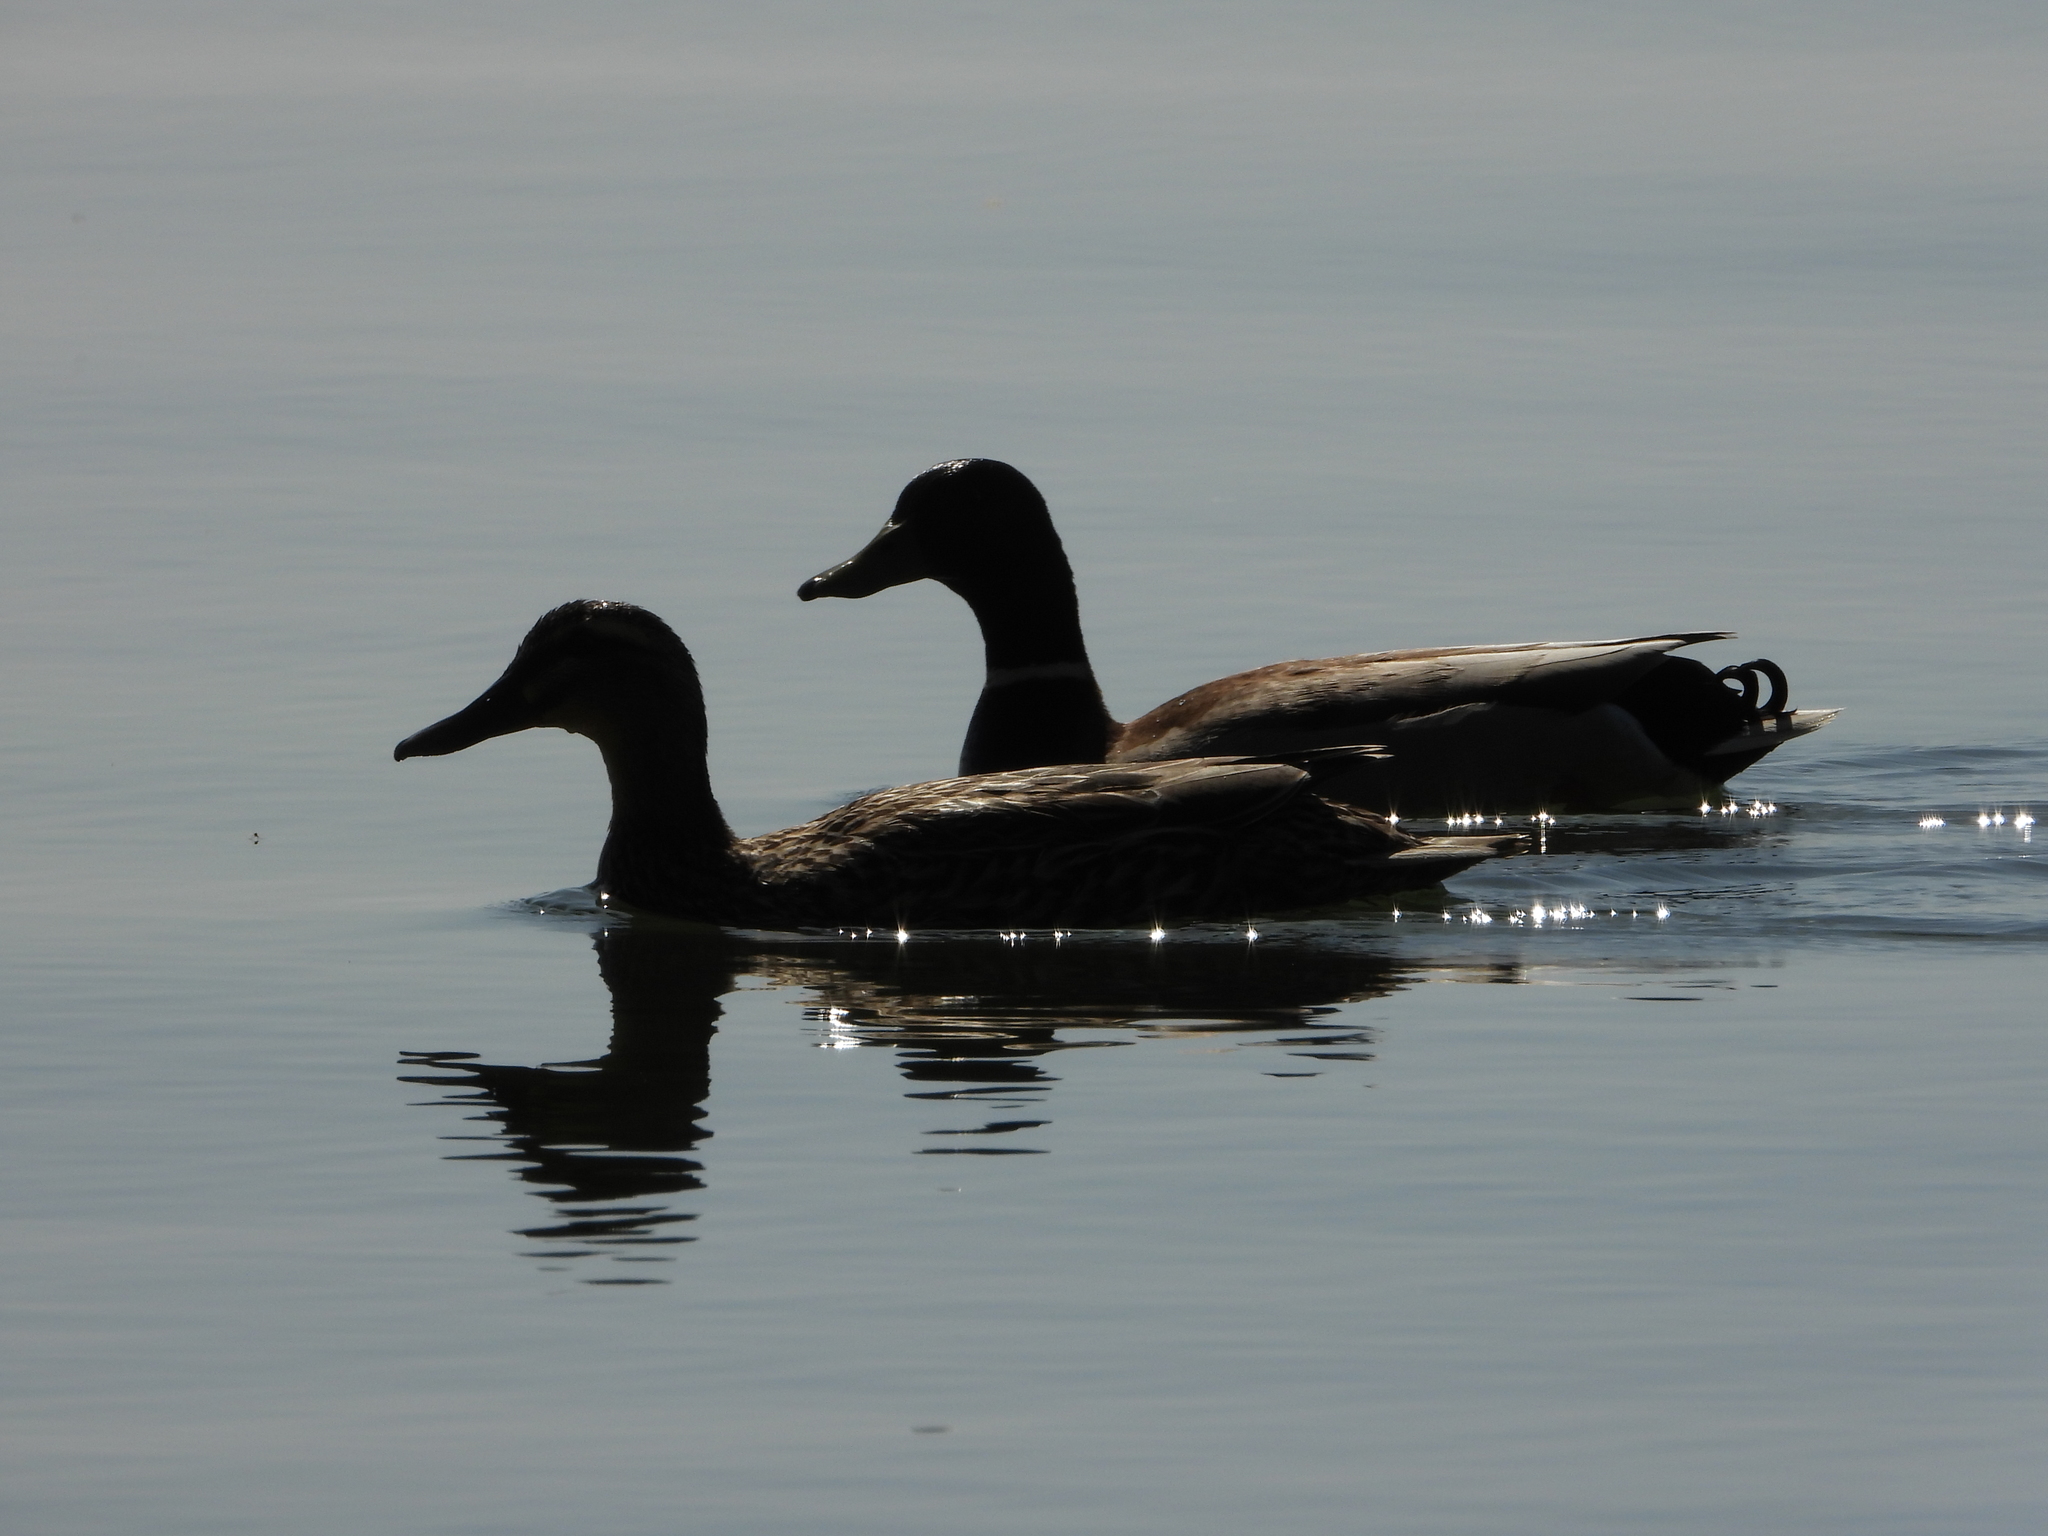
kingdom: Animalia
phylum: Chordata
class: Aves
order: Anseriformes
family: Anatidae
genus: Anas
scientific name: Anas platyrhynchos
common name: Mallard
